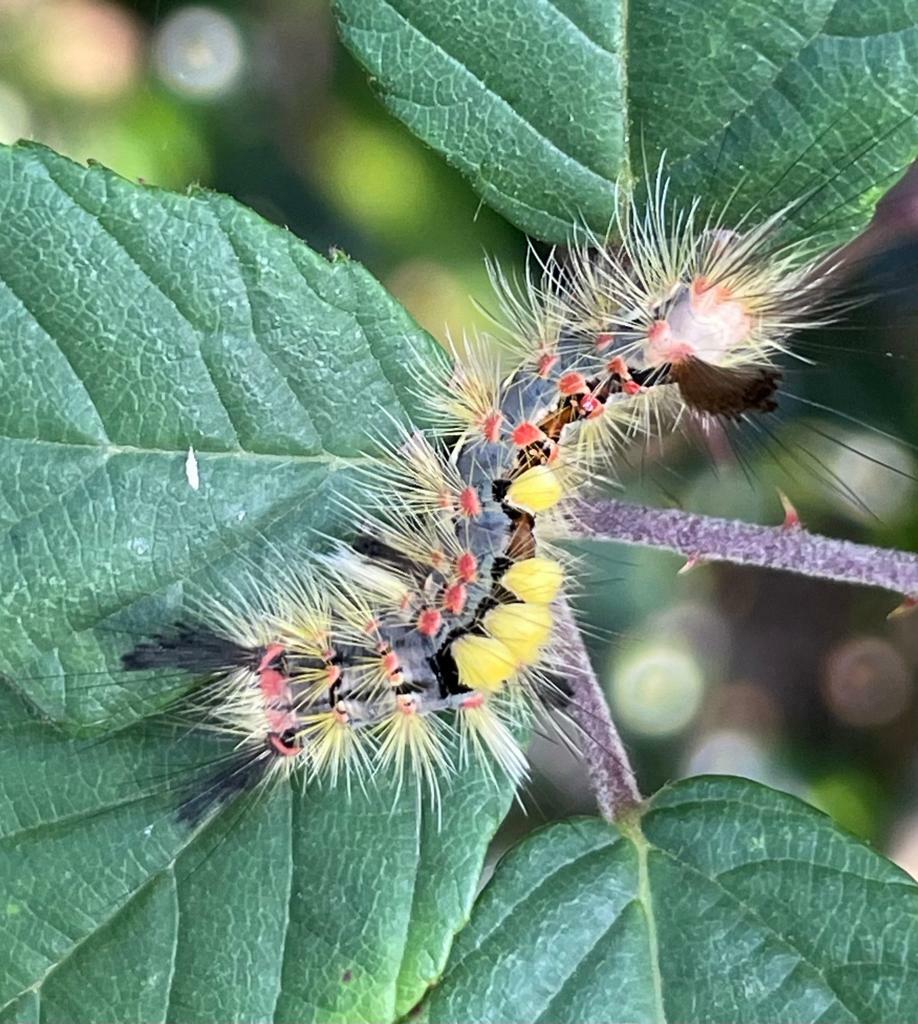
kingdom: Animalia
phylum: Arthropoda
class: Insecta
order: Lepidoptera
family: Erebidae
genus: Orgyia
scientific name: Orgyia antiqua
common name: Vapourer
